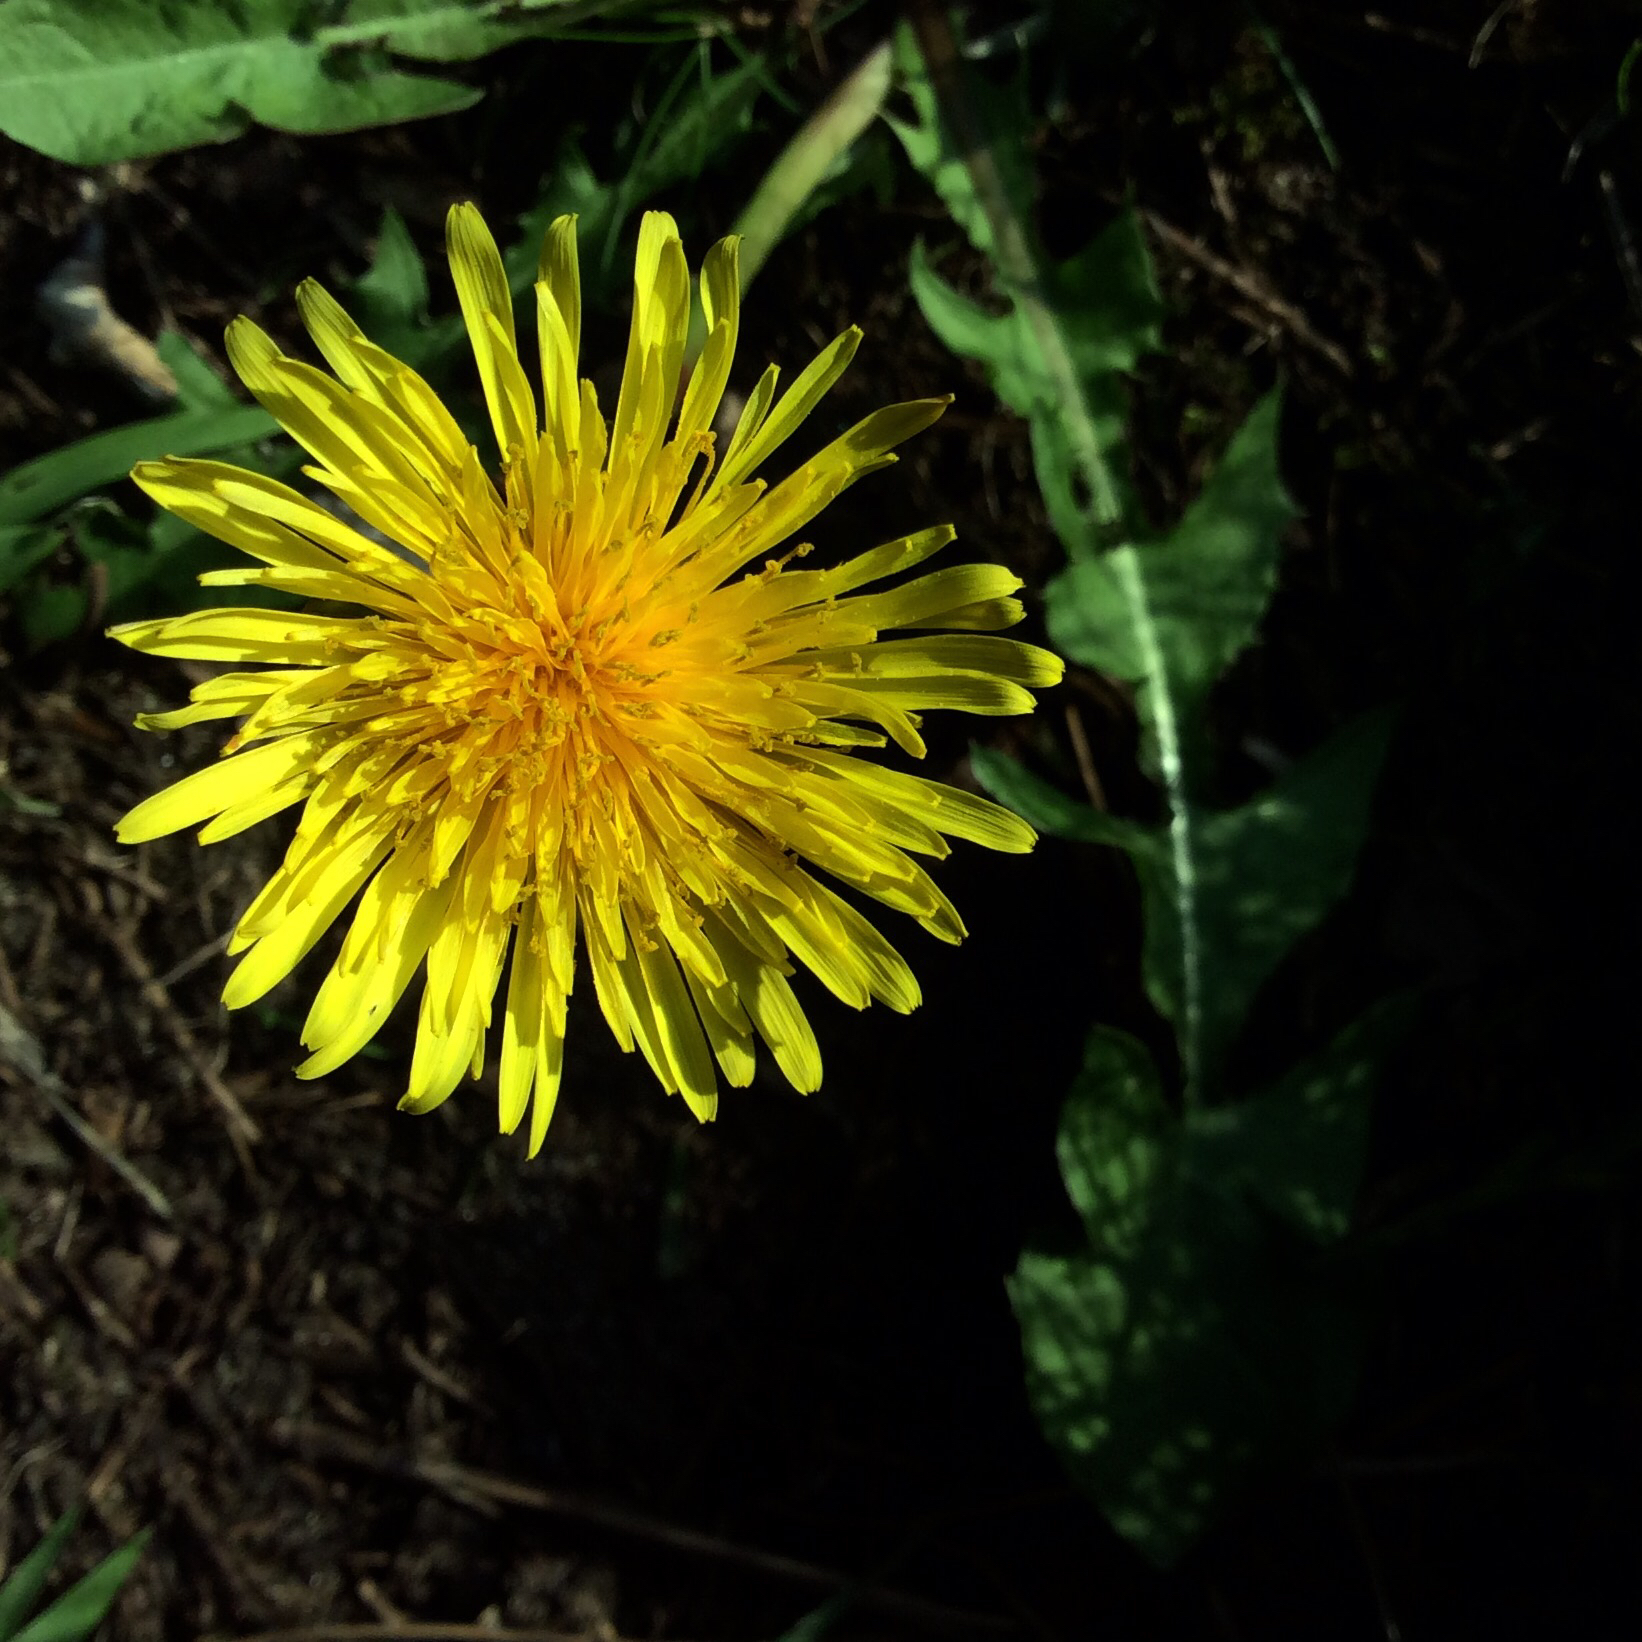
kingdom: Plantae
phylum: Tracheophyta
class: Magnoliopsida
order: Asterales
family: Asteraceae
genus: Taraxacum
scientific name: Taraxacum officinale
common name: Common dandelion
